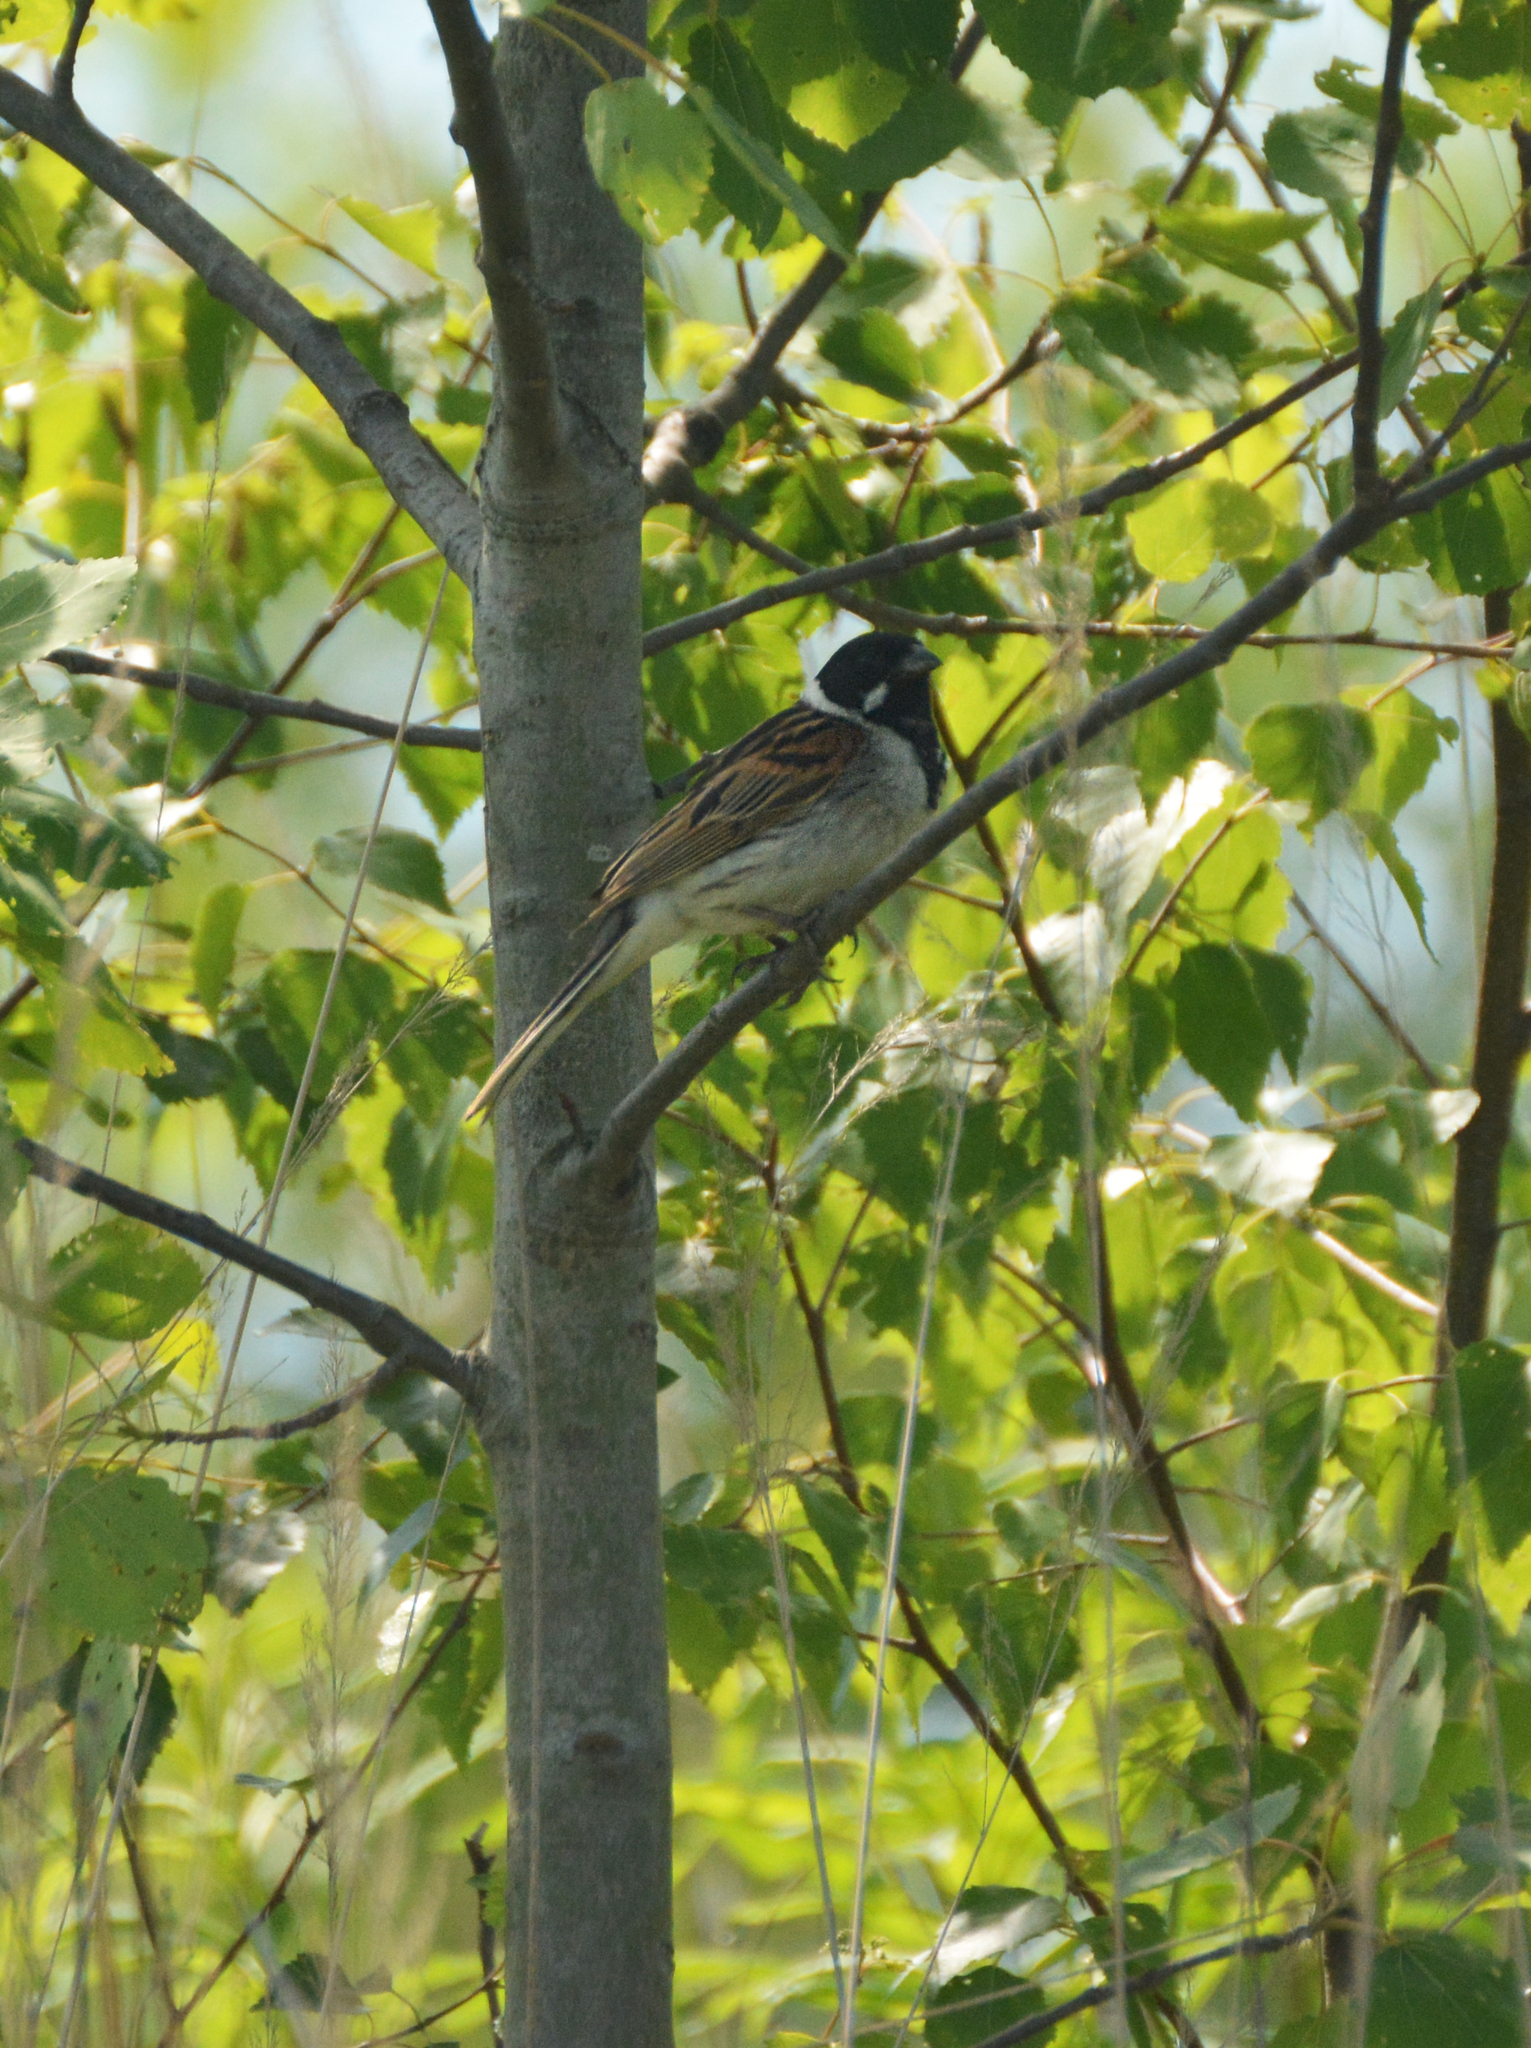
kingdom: Animalia
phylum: Chordata
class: Aves
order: Passeriformes
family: Emberizidae
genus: Emberiza
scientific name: Emberiza schoeniclus
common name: Reed bunting
